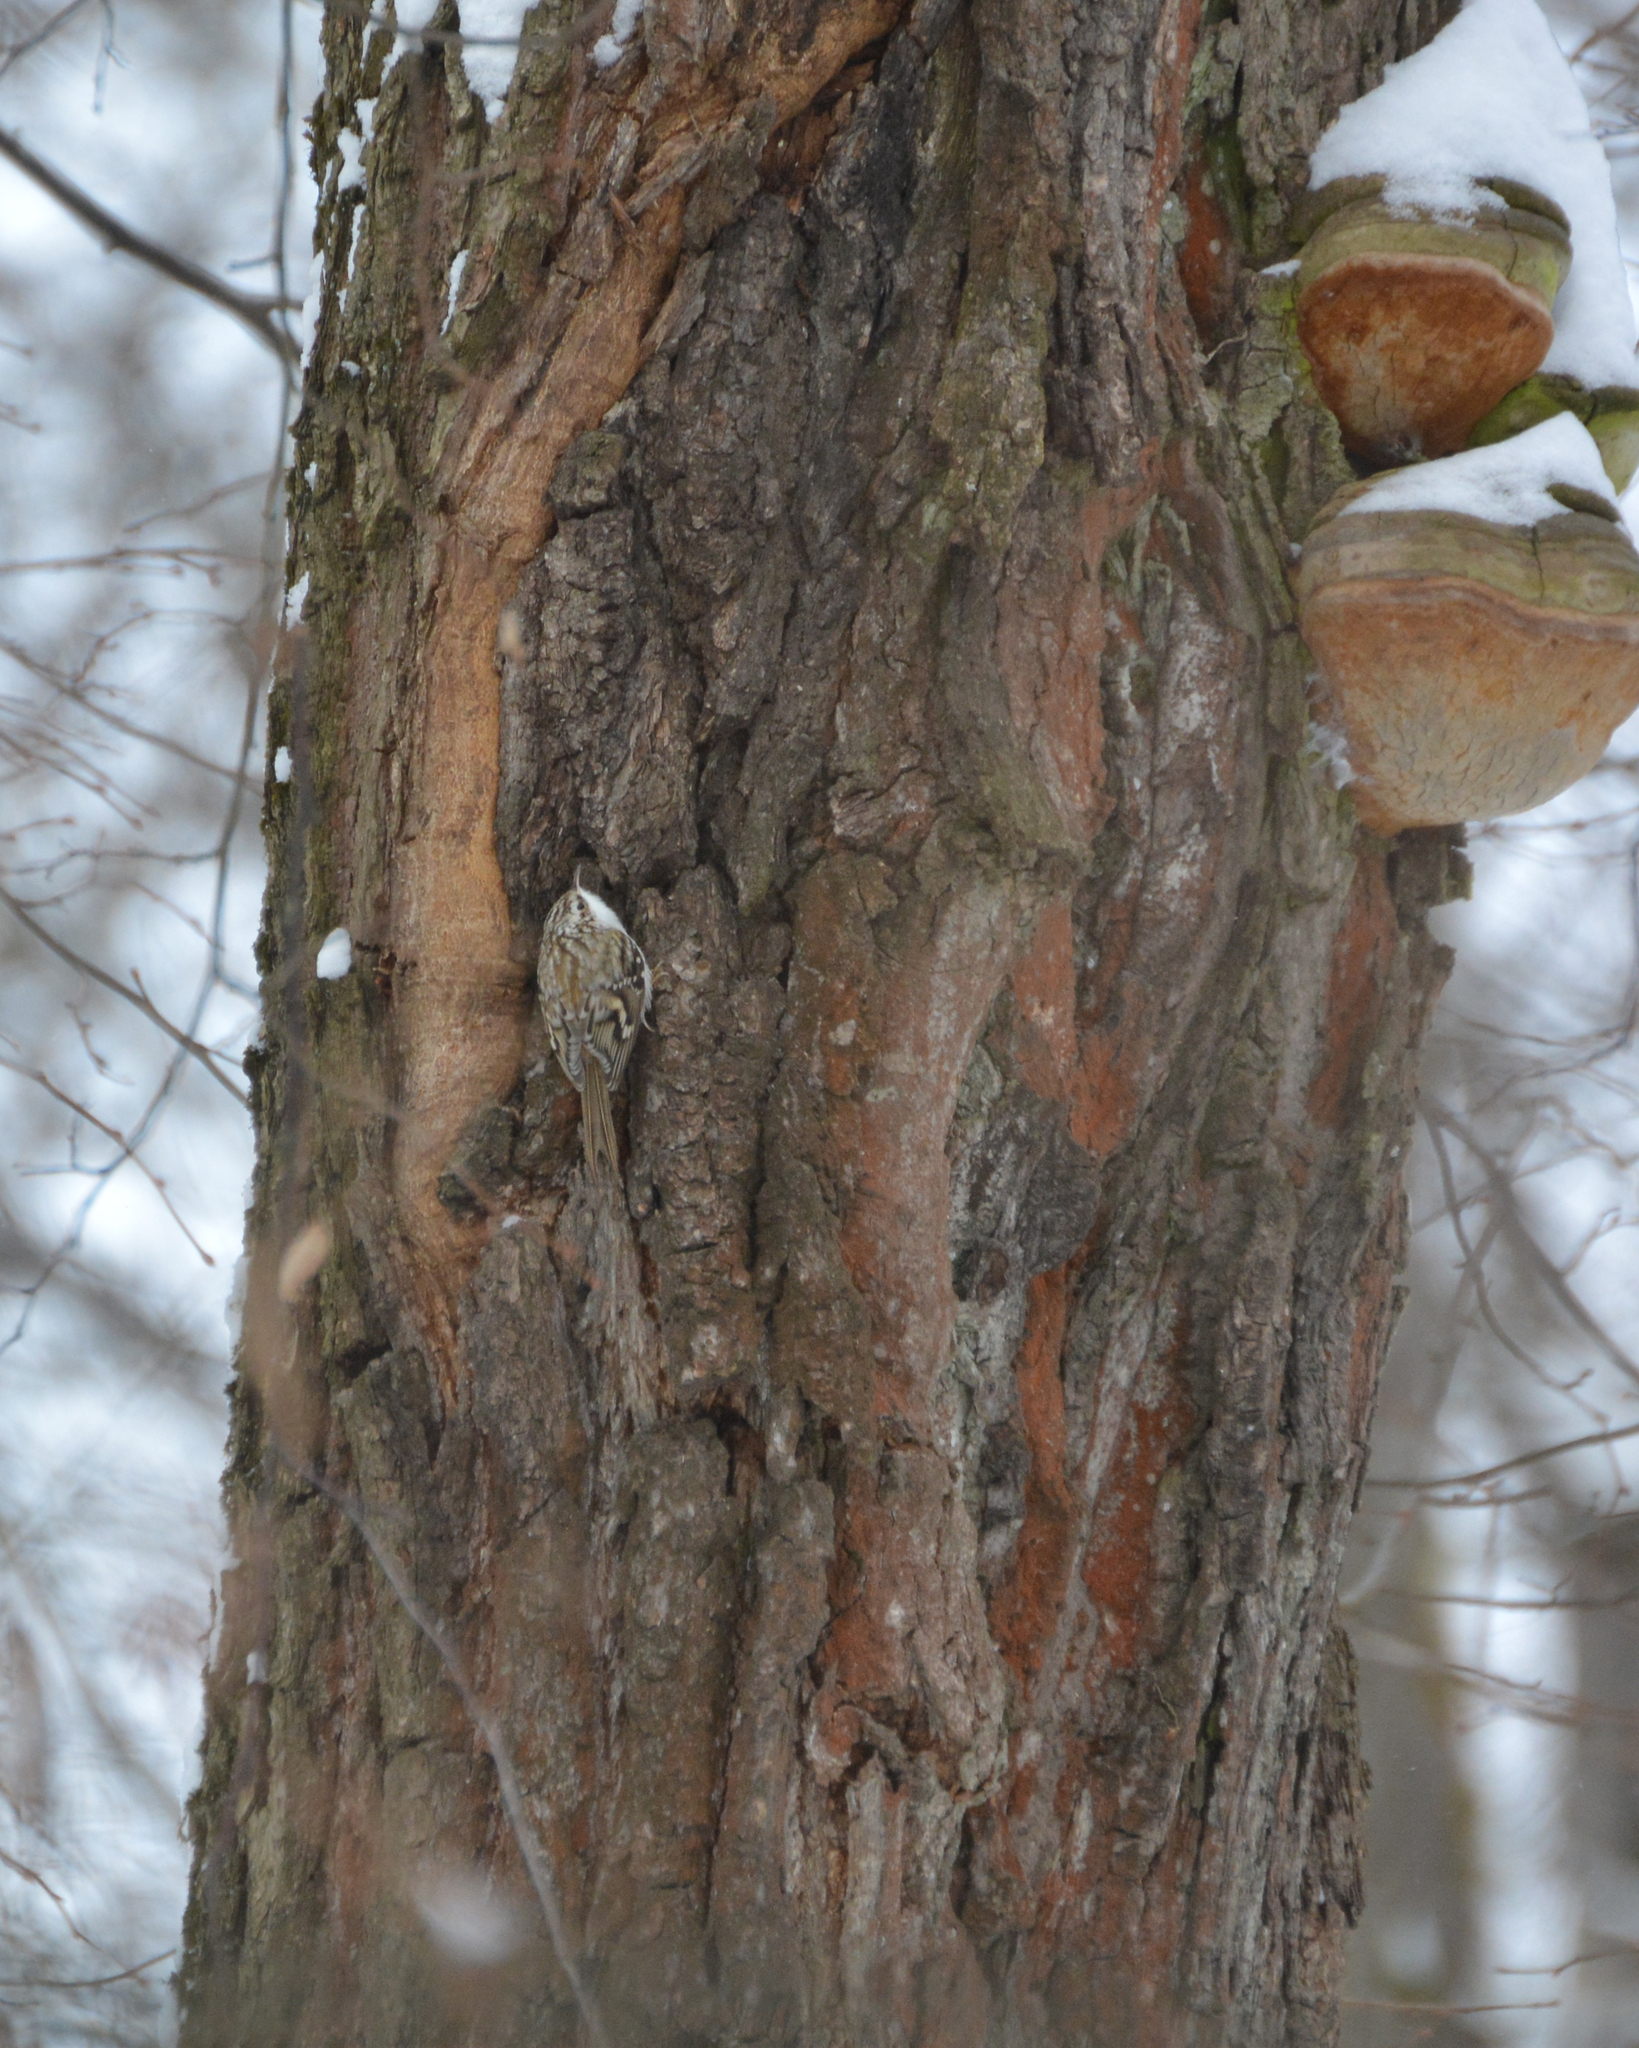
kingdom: Animalia
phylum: Chordata
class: Aves
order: Passeriformes
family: Certhiidae
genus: Certhia
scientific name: Certhia familiaris
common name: Eurasian treecreeper
